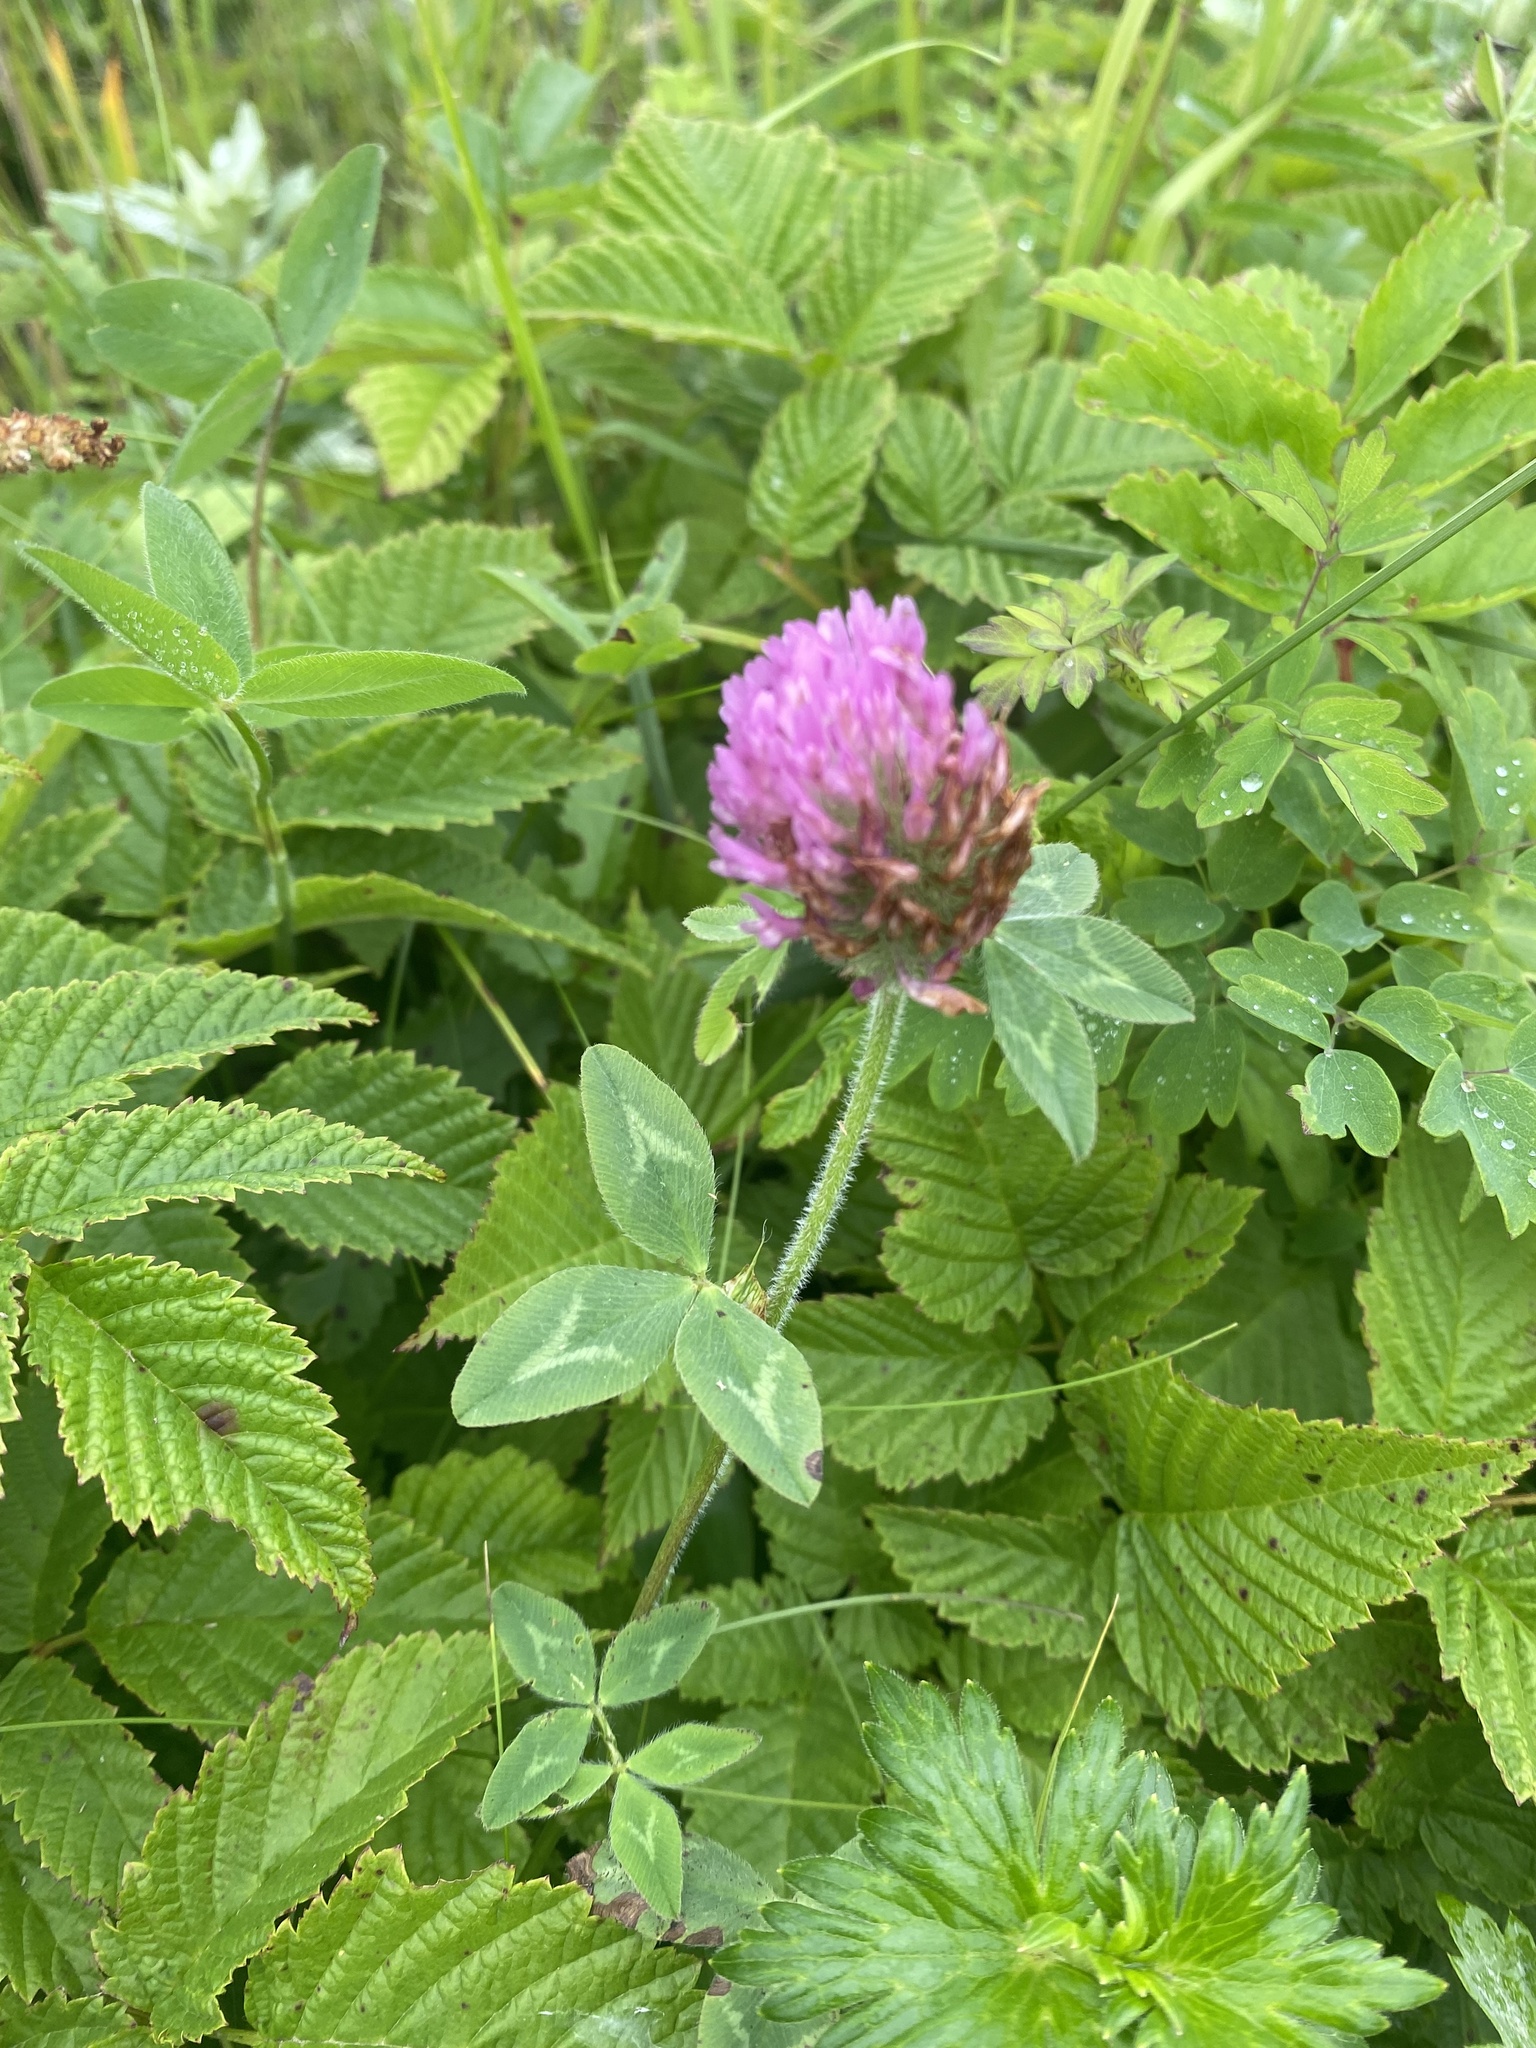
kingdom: Plantae
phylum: Tracheophyta
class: Magnoliopsida
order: Fabales
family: Fabaceae
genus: Trifolium
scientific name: Trifolium pratense
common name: Red clover
